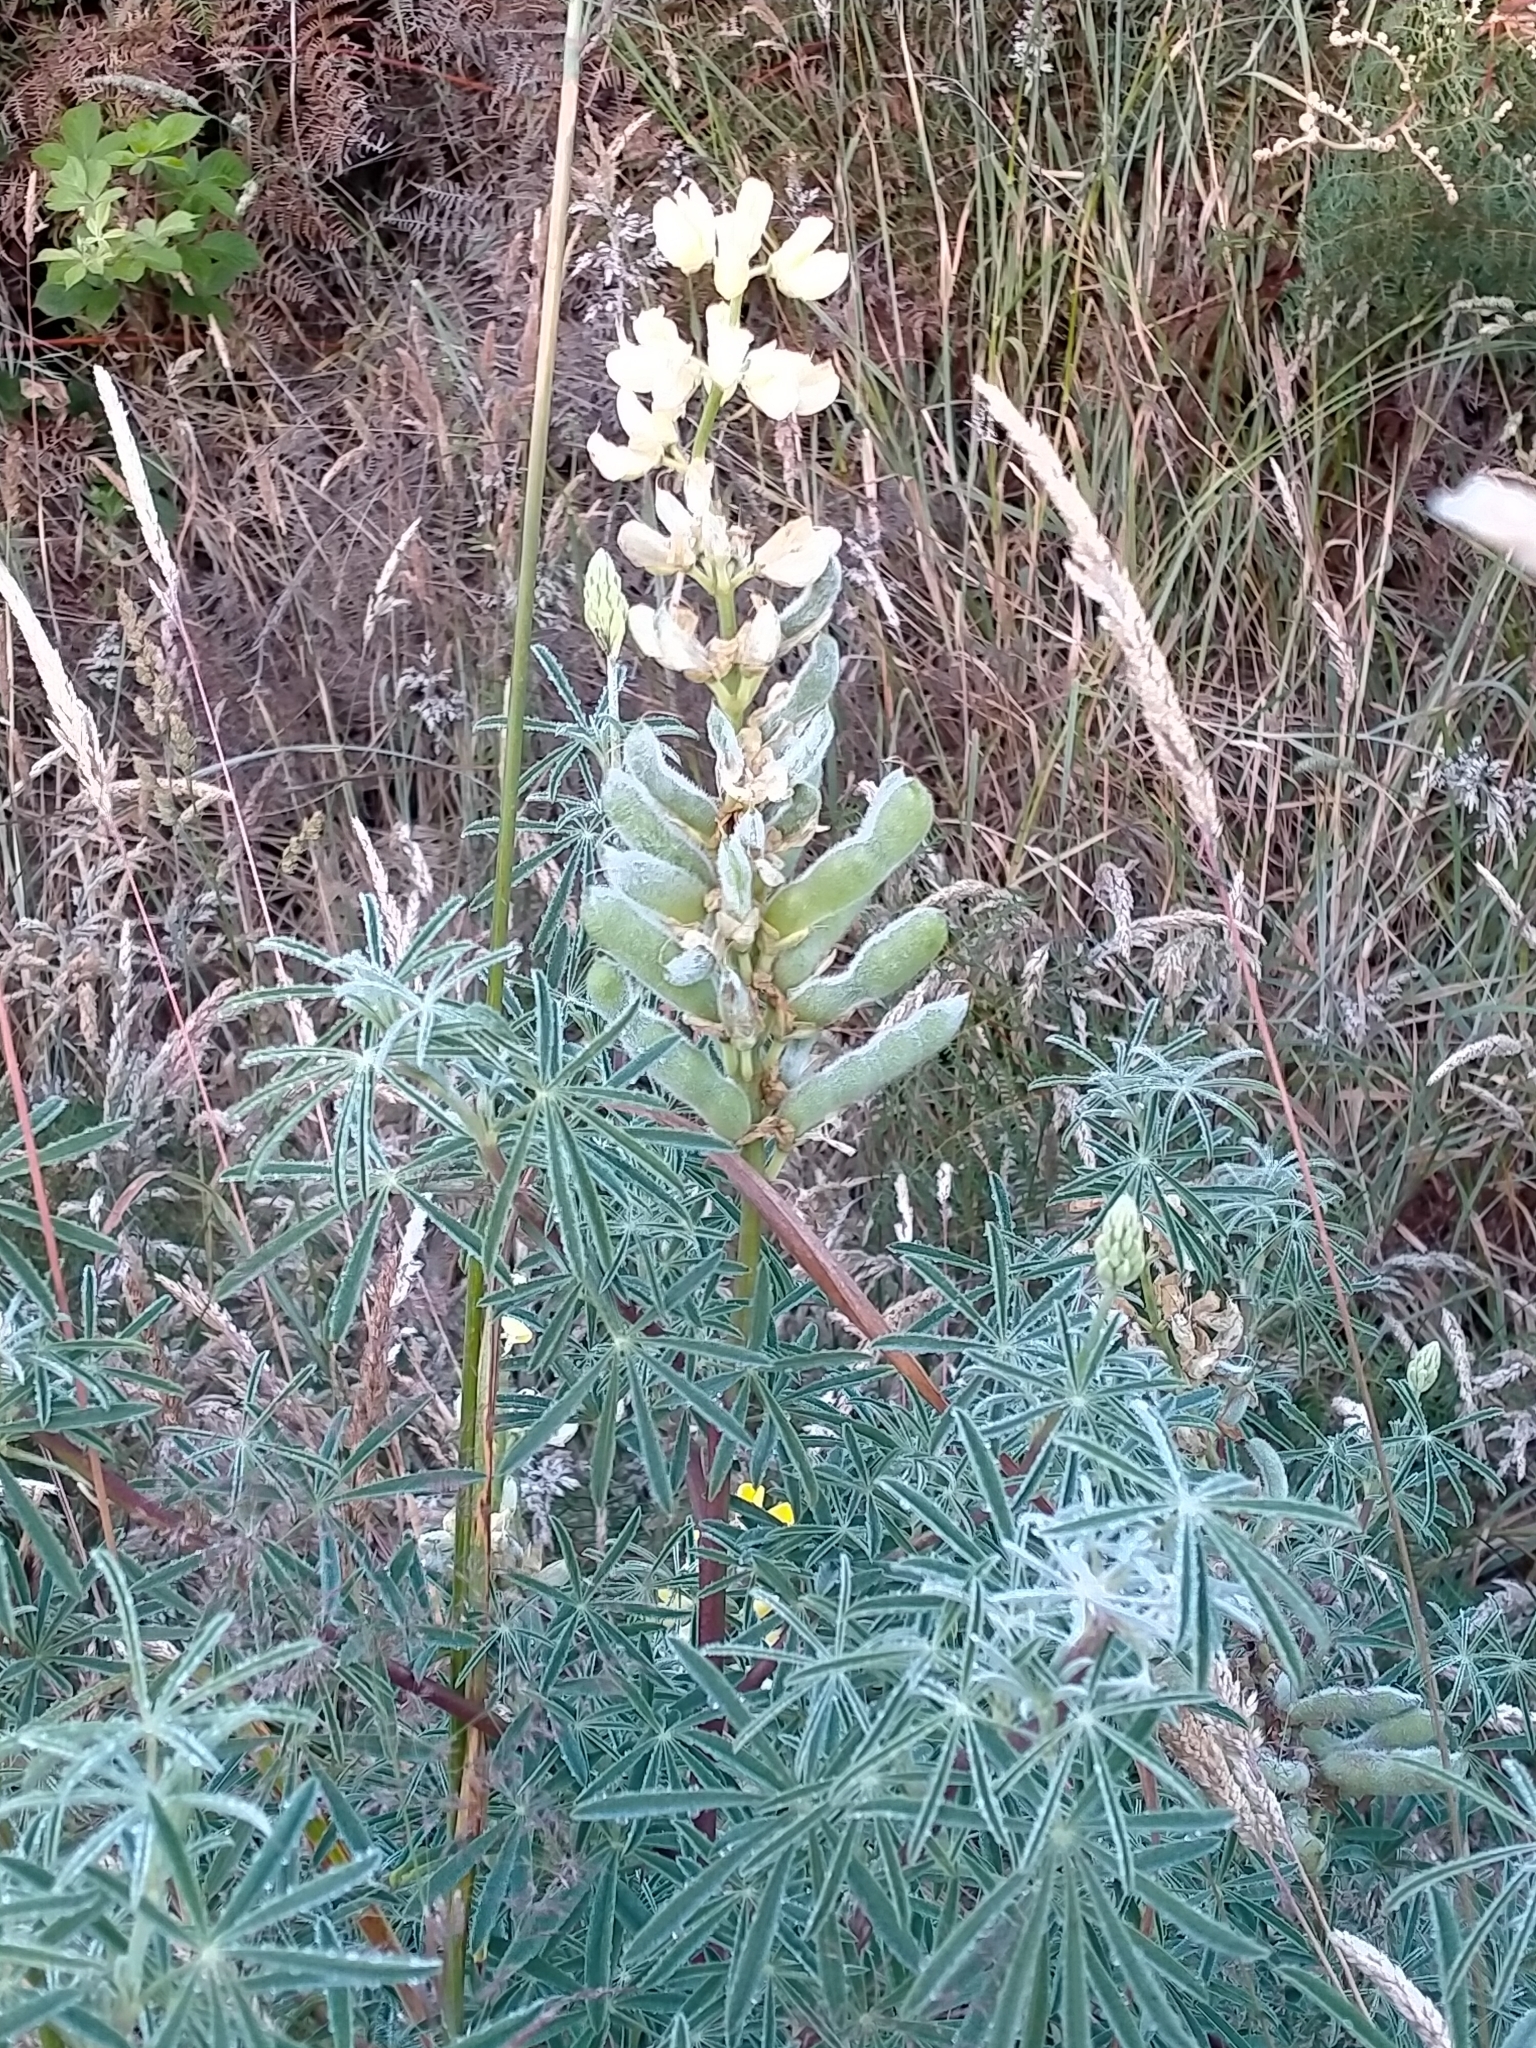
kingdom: Plantae
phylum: Tracheophyta
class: Magnoliopsida
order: Fabales
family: Fabaceae
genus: Lupinus
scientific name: Lupinus arboreus
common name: Yellow bush lupine
